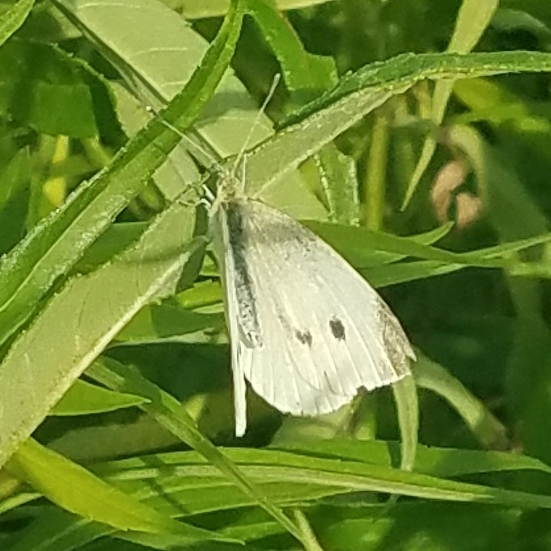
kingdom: Animalia
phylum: Arthropoda
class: Insecta
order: Lepidoptera
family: Pieridae
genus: Pieris
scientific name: Pieris rapae
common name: Small white
